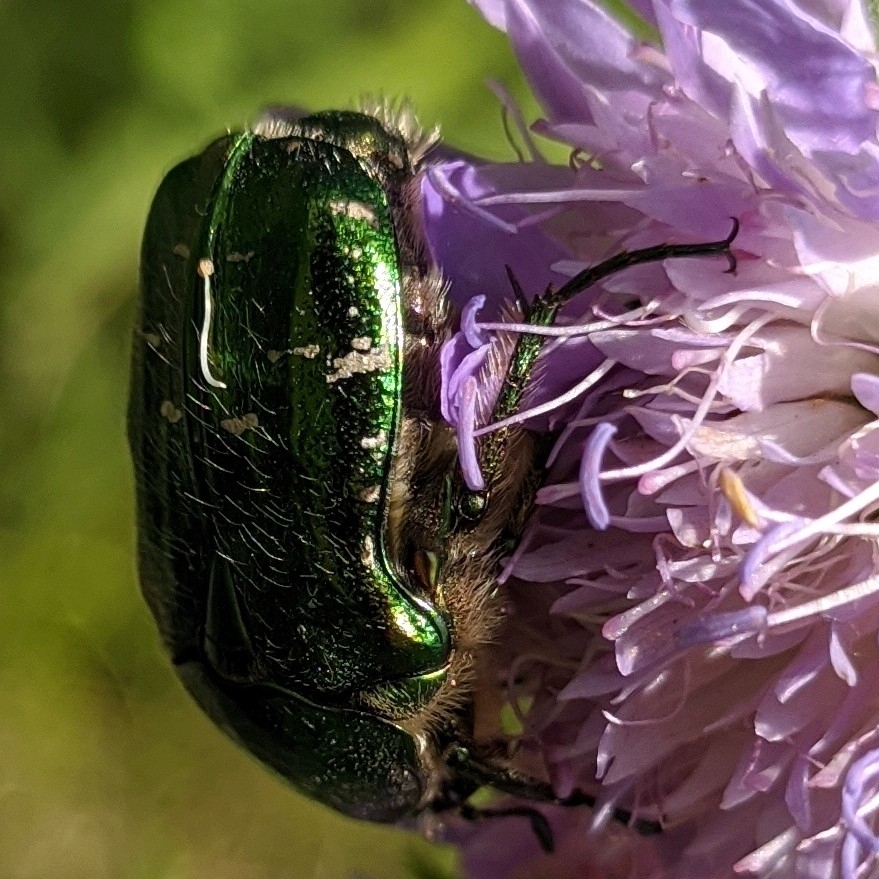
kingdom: Animalia
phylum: Arthropoda
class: Insecta
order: Coleoptera
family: Scarabaeidae
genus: Cetonia
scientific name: Cetonia aurata
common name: Rose chafer
